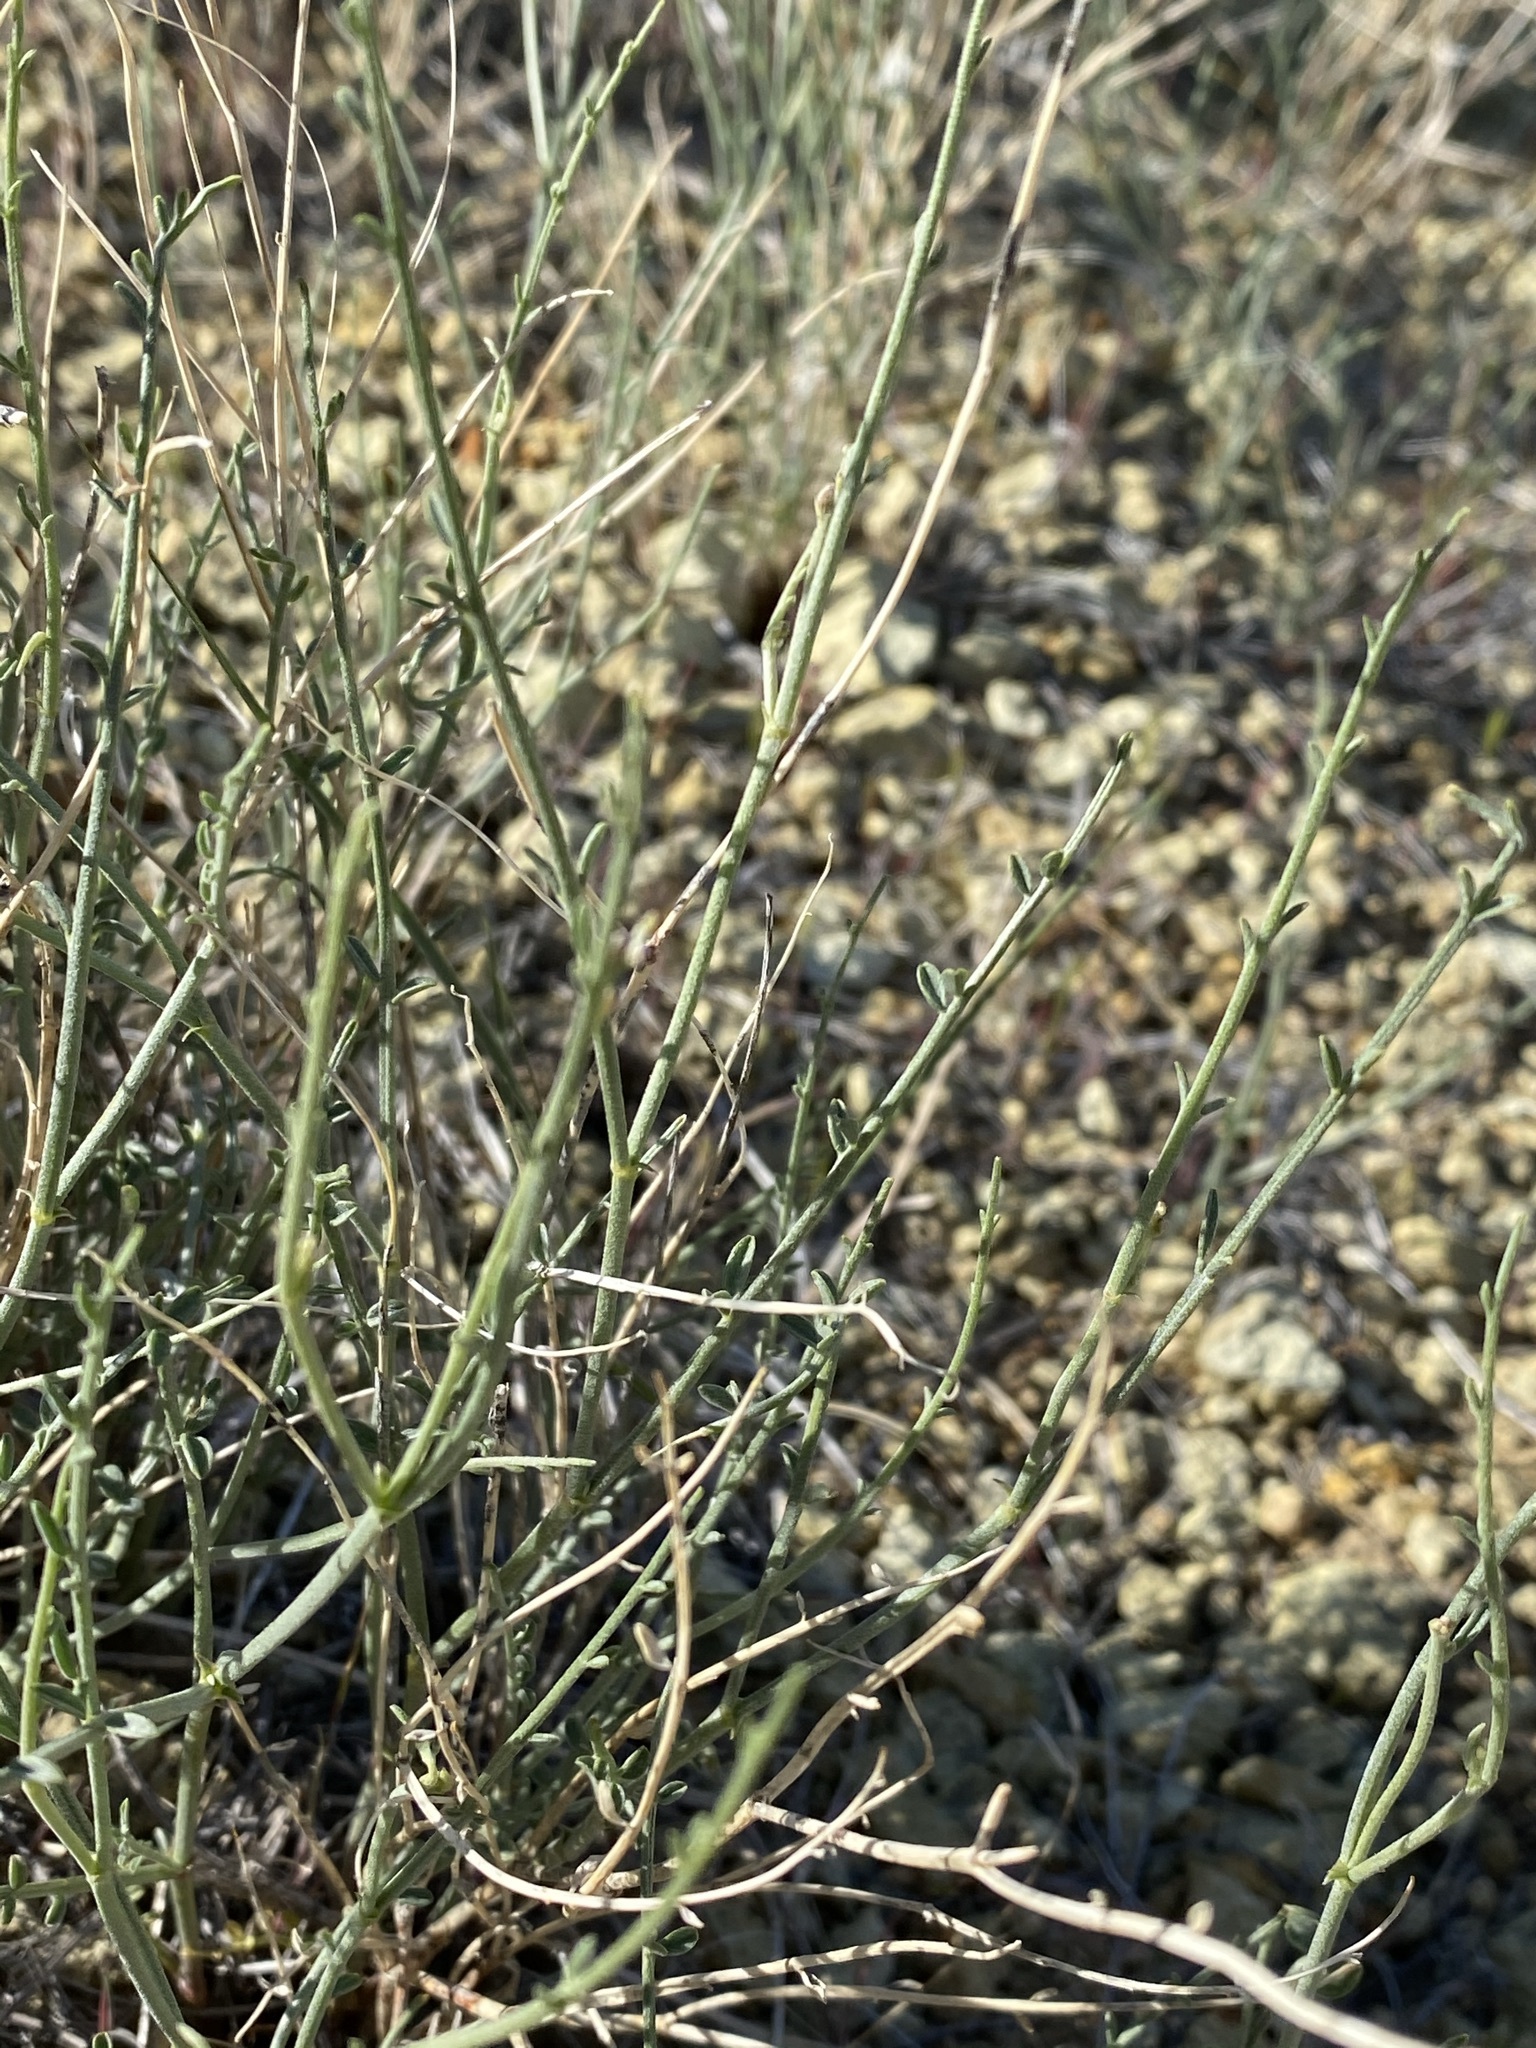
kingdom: Plantae
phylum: Tracheophyta
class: Magnoliopsida
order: Fabales
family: Fabaceae
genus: Astragalus
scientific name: Astragalus sterilis
